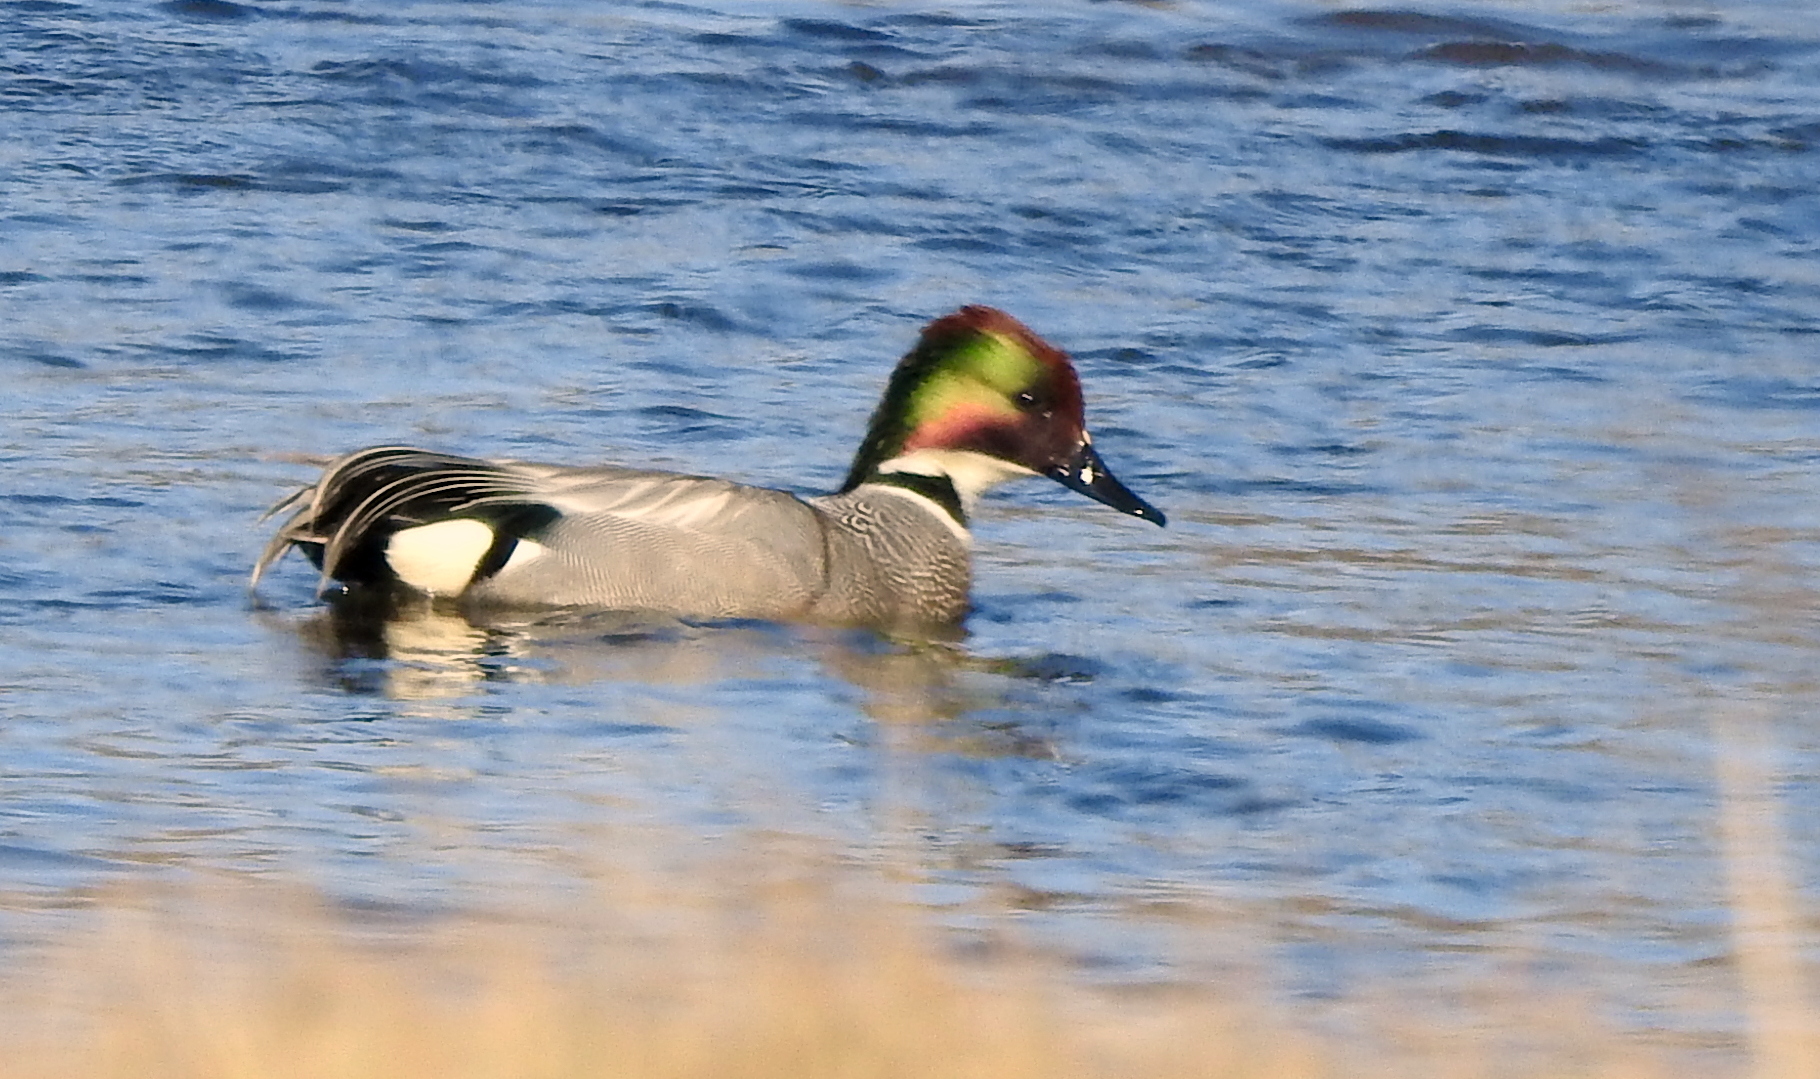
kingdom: Animalia
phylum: Chordata
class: Aves
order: Anseriformes
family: Anatidae
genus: Mareca
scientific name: Mareca falcata
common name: Falcated duck
